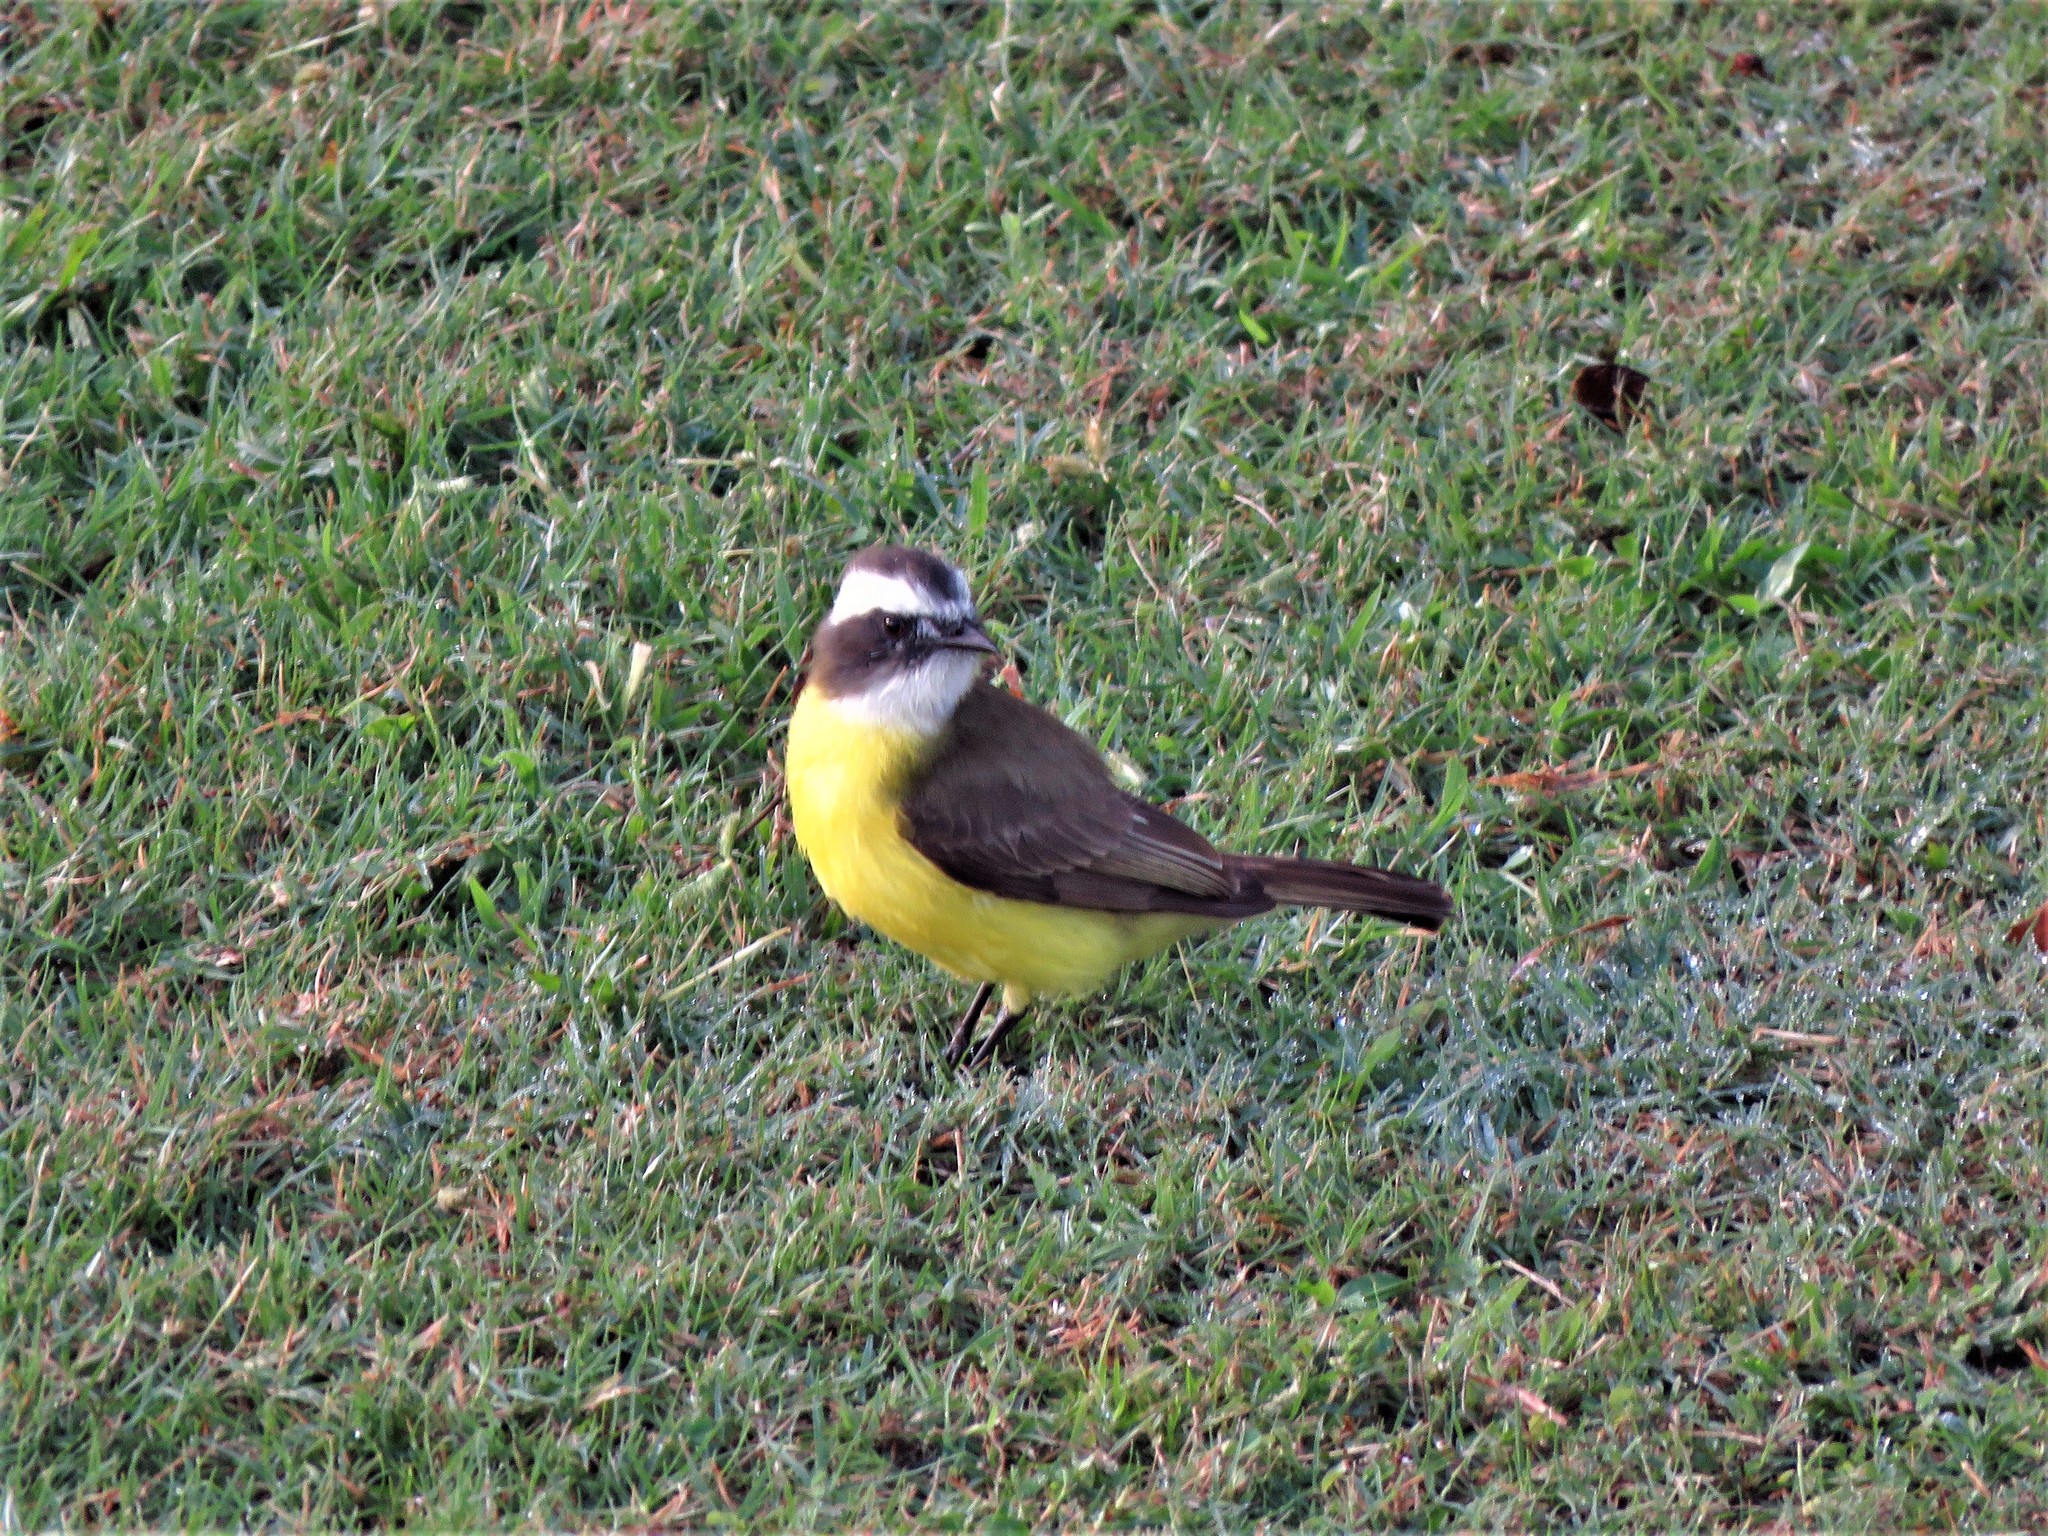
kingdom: Animalia
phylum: Chordata
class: Aves
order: Passeriformes
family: Tyrannidae
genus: Myiozetetes
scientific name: Myiozetetes similis
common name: Social flycatcher
